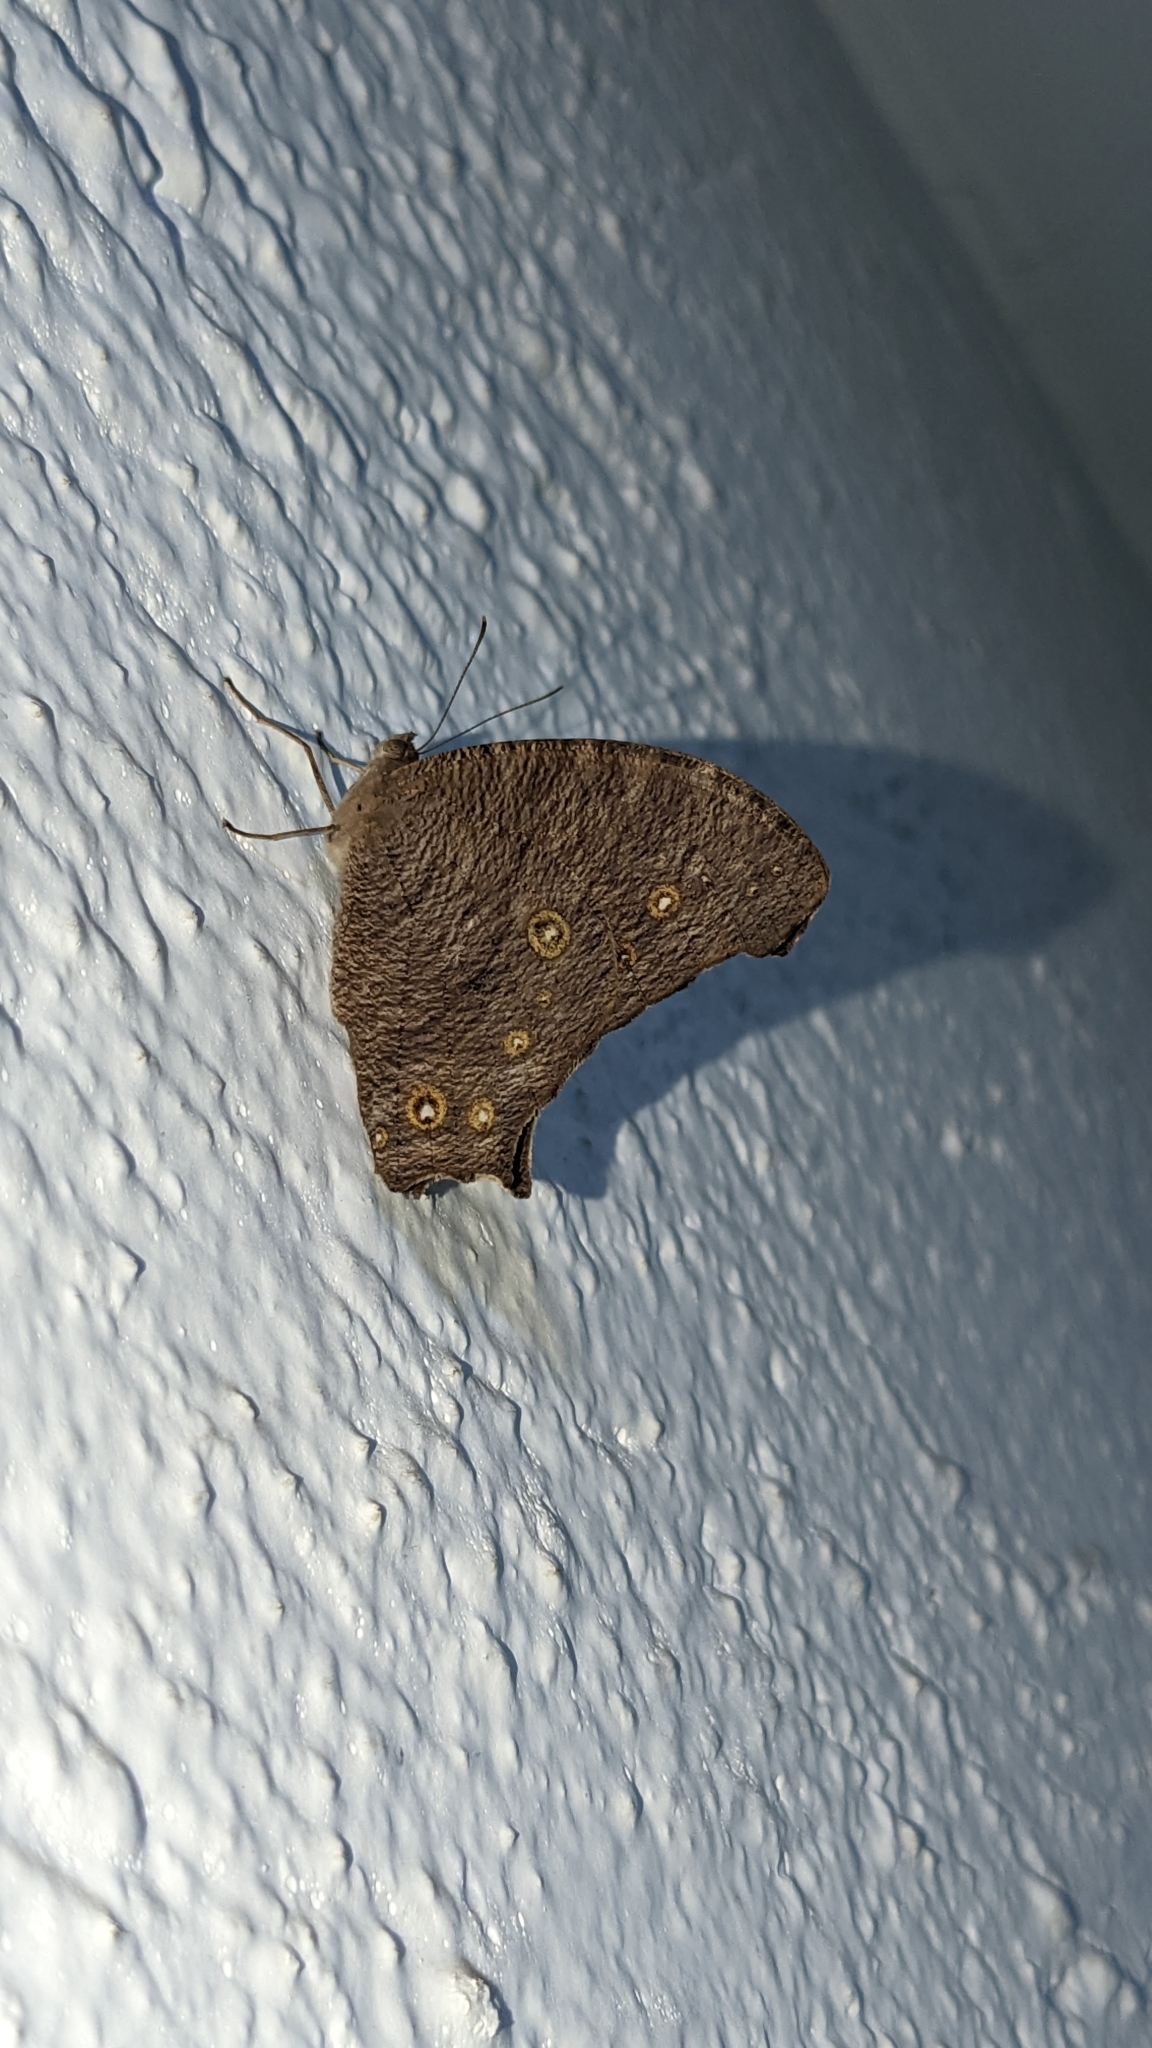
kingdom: Animalia
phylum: Arthropoda
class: Insecta
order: Lepidoptera
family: Nymphalidae
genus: Melanitis
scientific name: Melanitis leda
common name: Twilight brown
